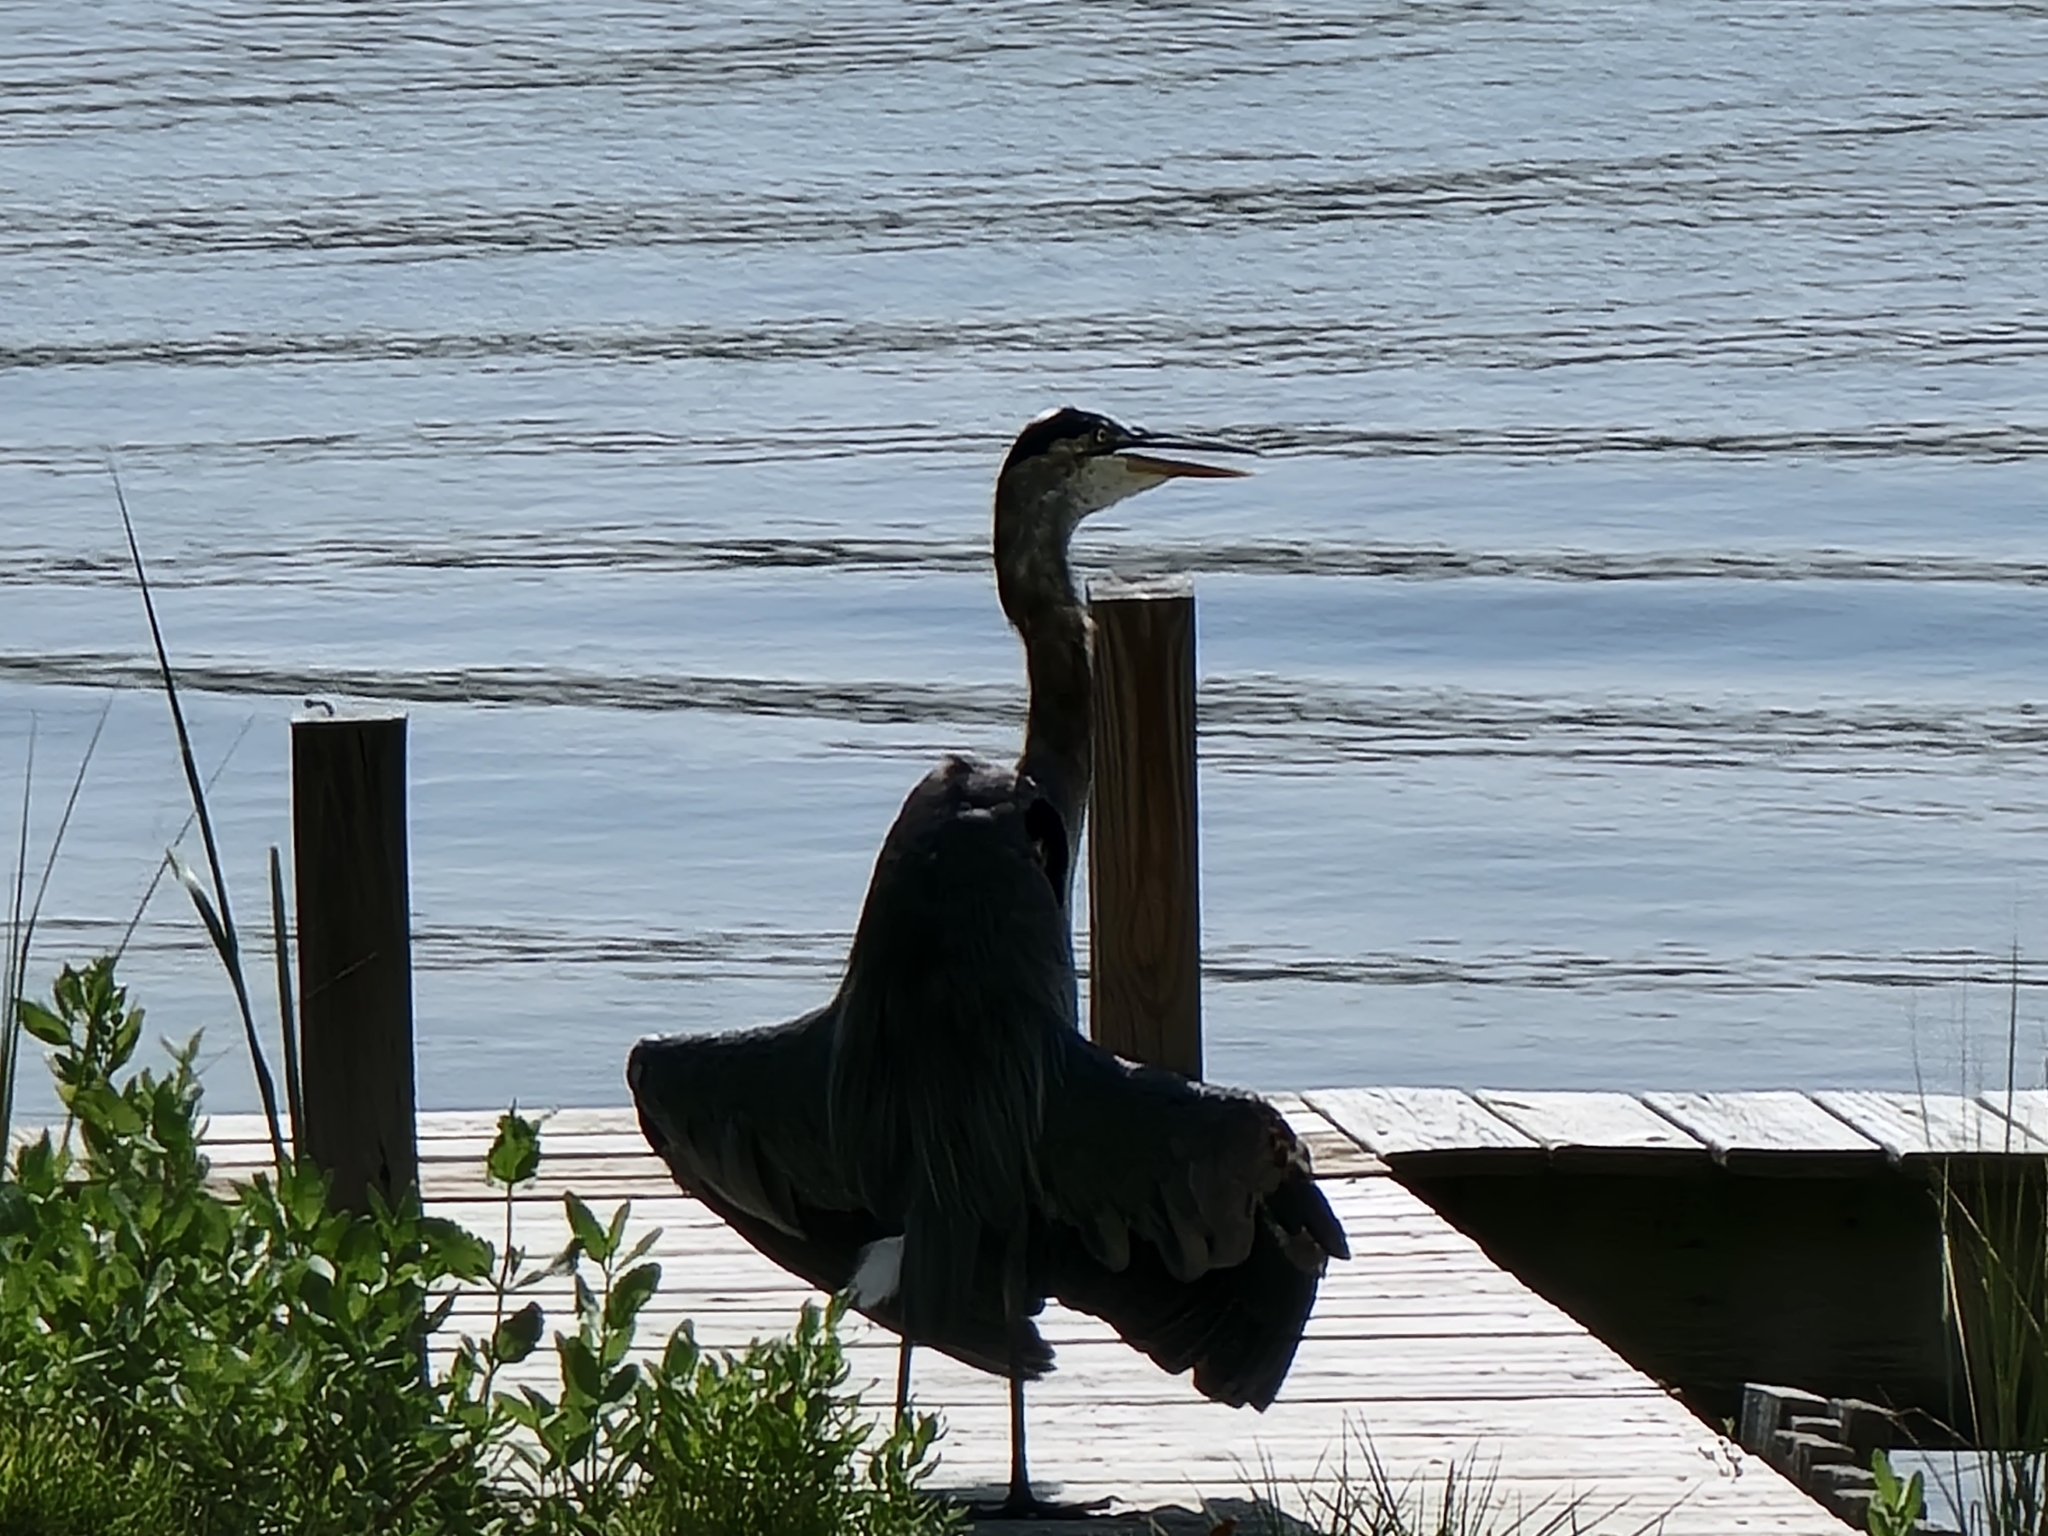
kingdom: Animalia
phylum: Chordata
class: Aves
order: Pelecaniformes
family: Ardeidae
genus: Ardea
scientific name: Ardea herodias
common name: Great blue heron
